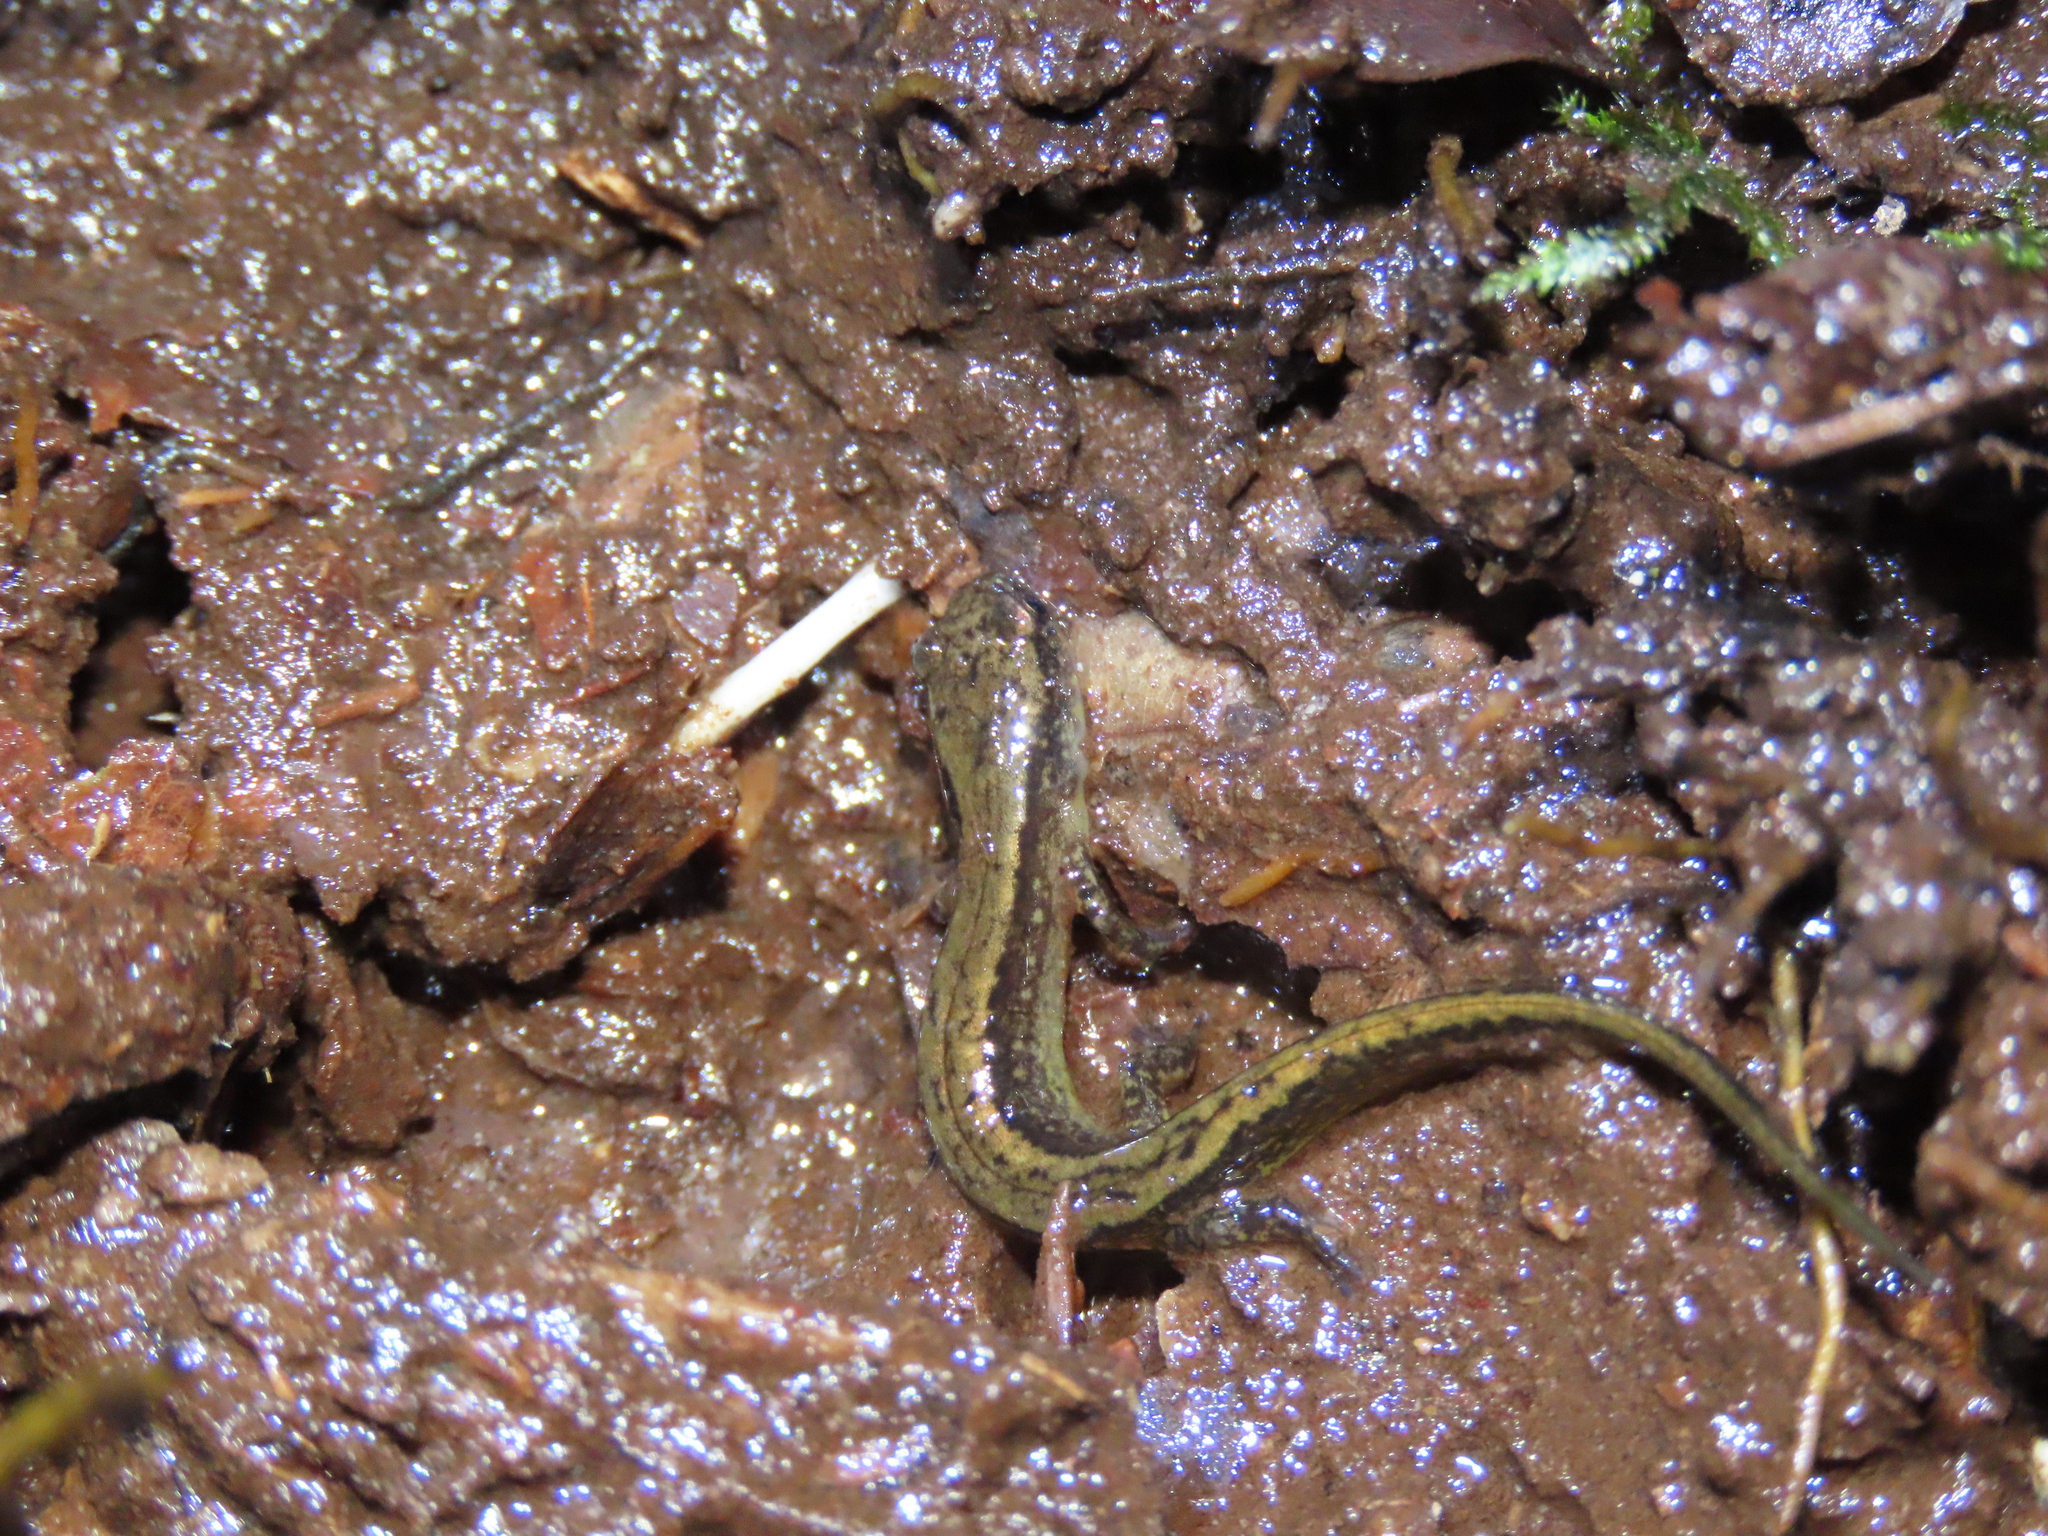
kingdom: Animalia
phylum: Chordata
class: Amphibia
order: Caudata
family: Plethodontidae
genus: Eurycea
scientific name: Eurycea cirrigera
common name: Southern two-lined salamander
